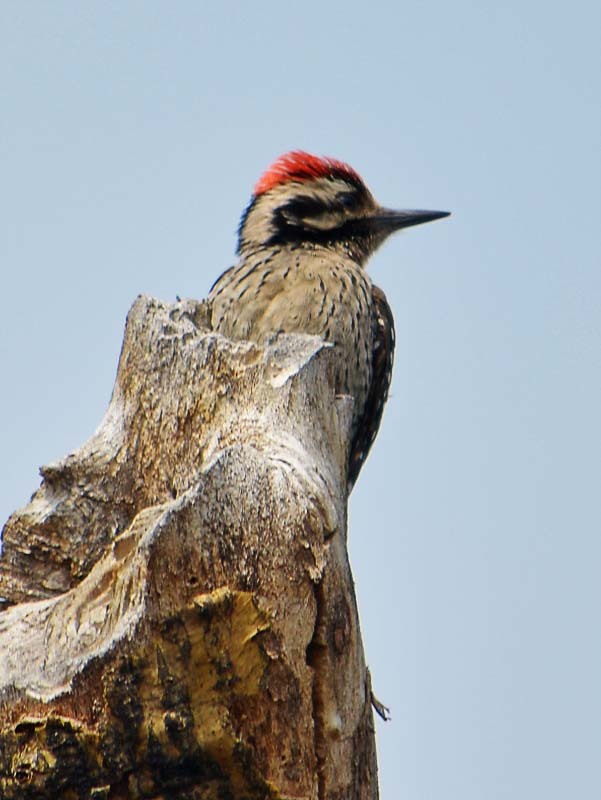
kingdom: Animalia
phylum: Chordata
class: Aves
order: Piciformes
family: Picidae
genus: Dryobates
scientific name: Dryobates scalaris
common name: Ladder-backed woodpecker
